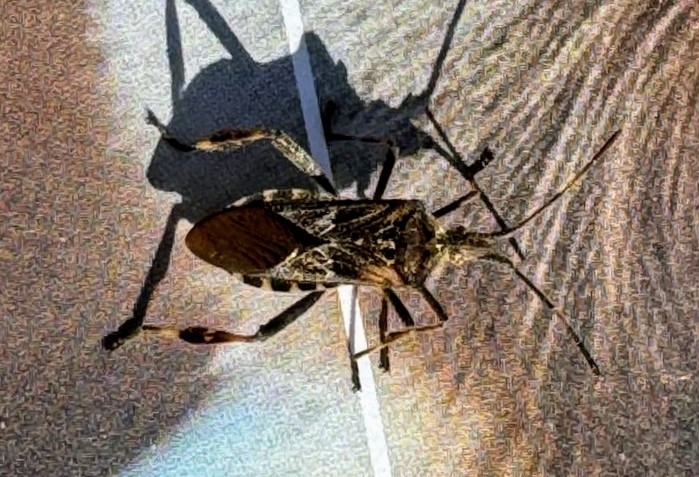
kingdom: Animalia
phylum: Arthropoda
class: Insecta
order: Hemiptera
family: Coreidae
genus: Leptoglossus
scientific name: Leptoglossus occidentalis
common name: Western conifer-seed bug
